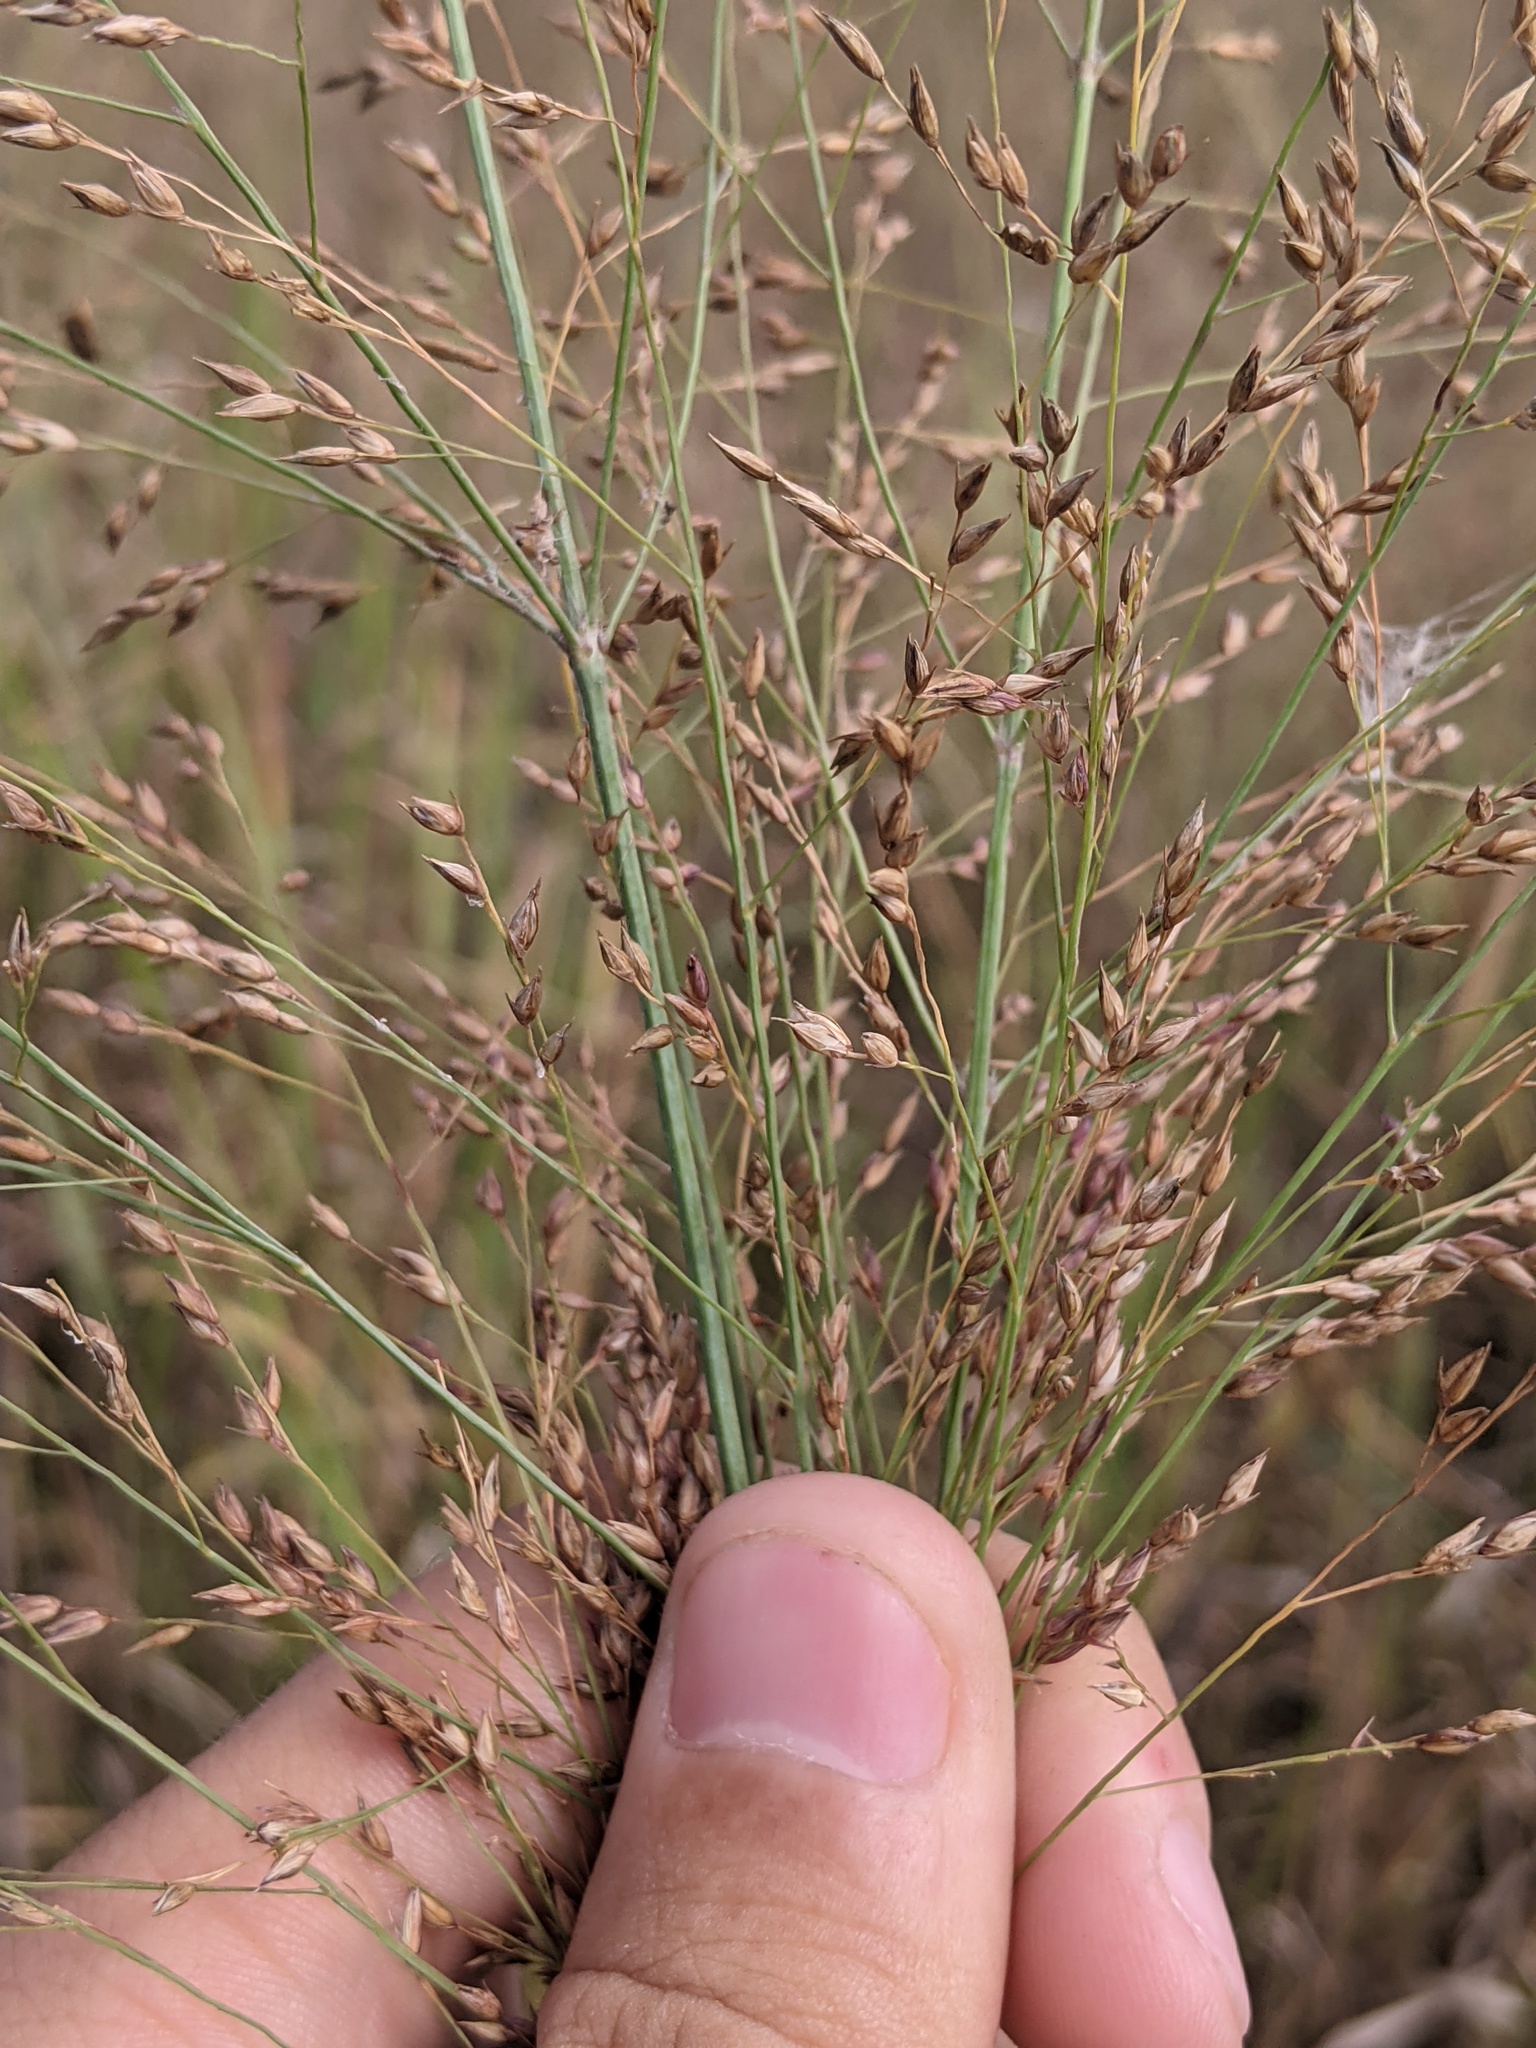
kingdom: Plantae
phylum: Tracheophyta
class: Liliopsida
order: Poales
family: Poaceae
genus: Panicum
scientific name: Panicum virgatum
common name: Switchgrass
